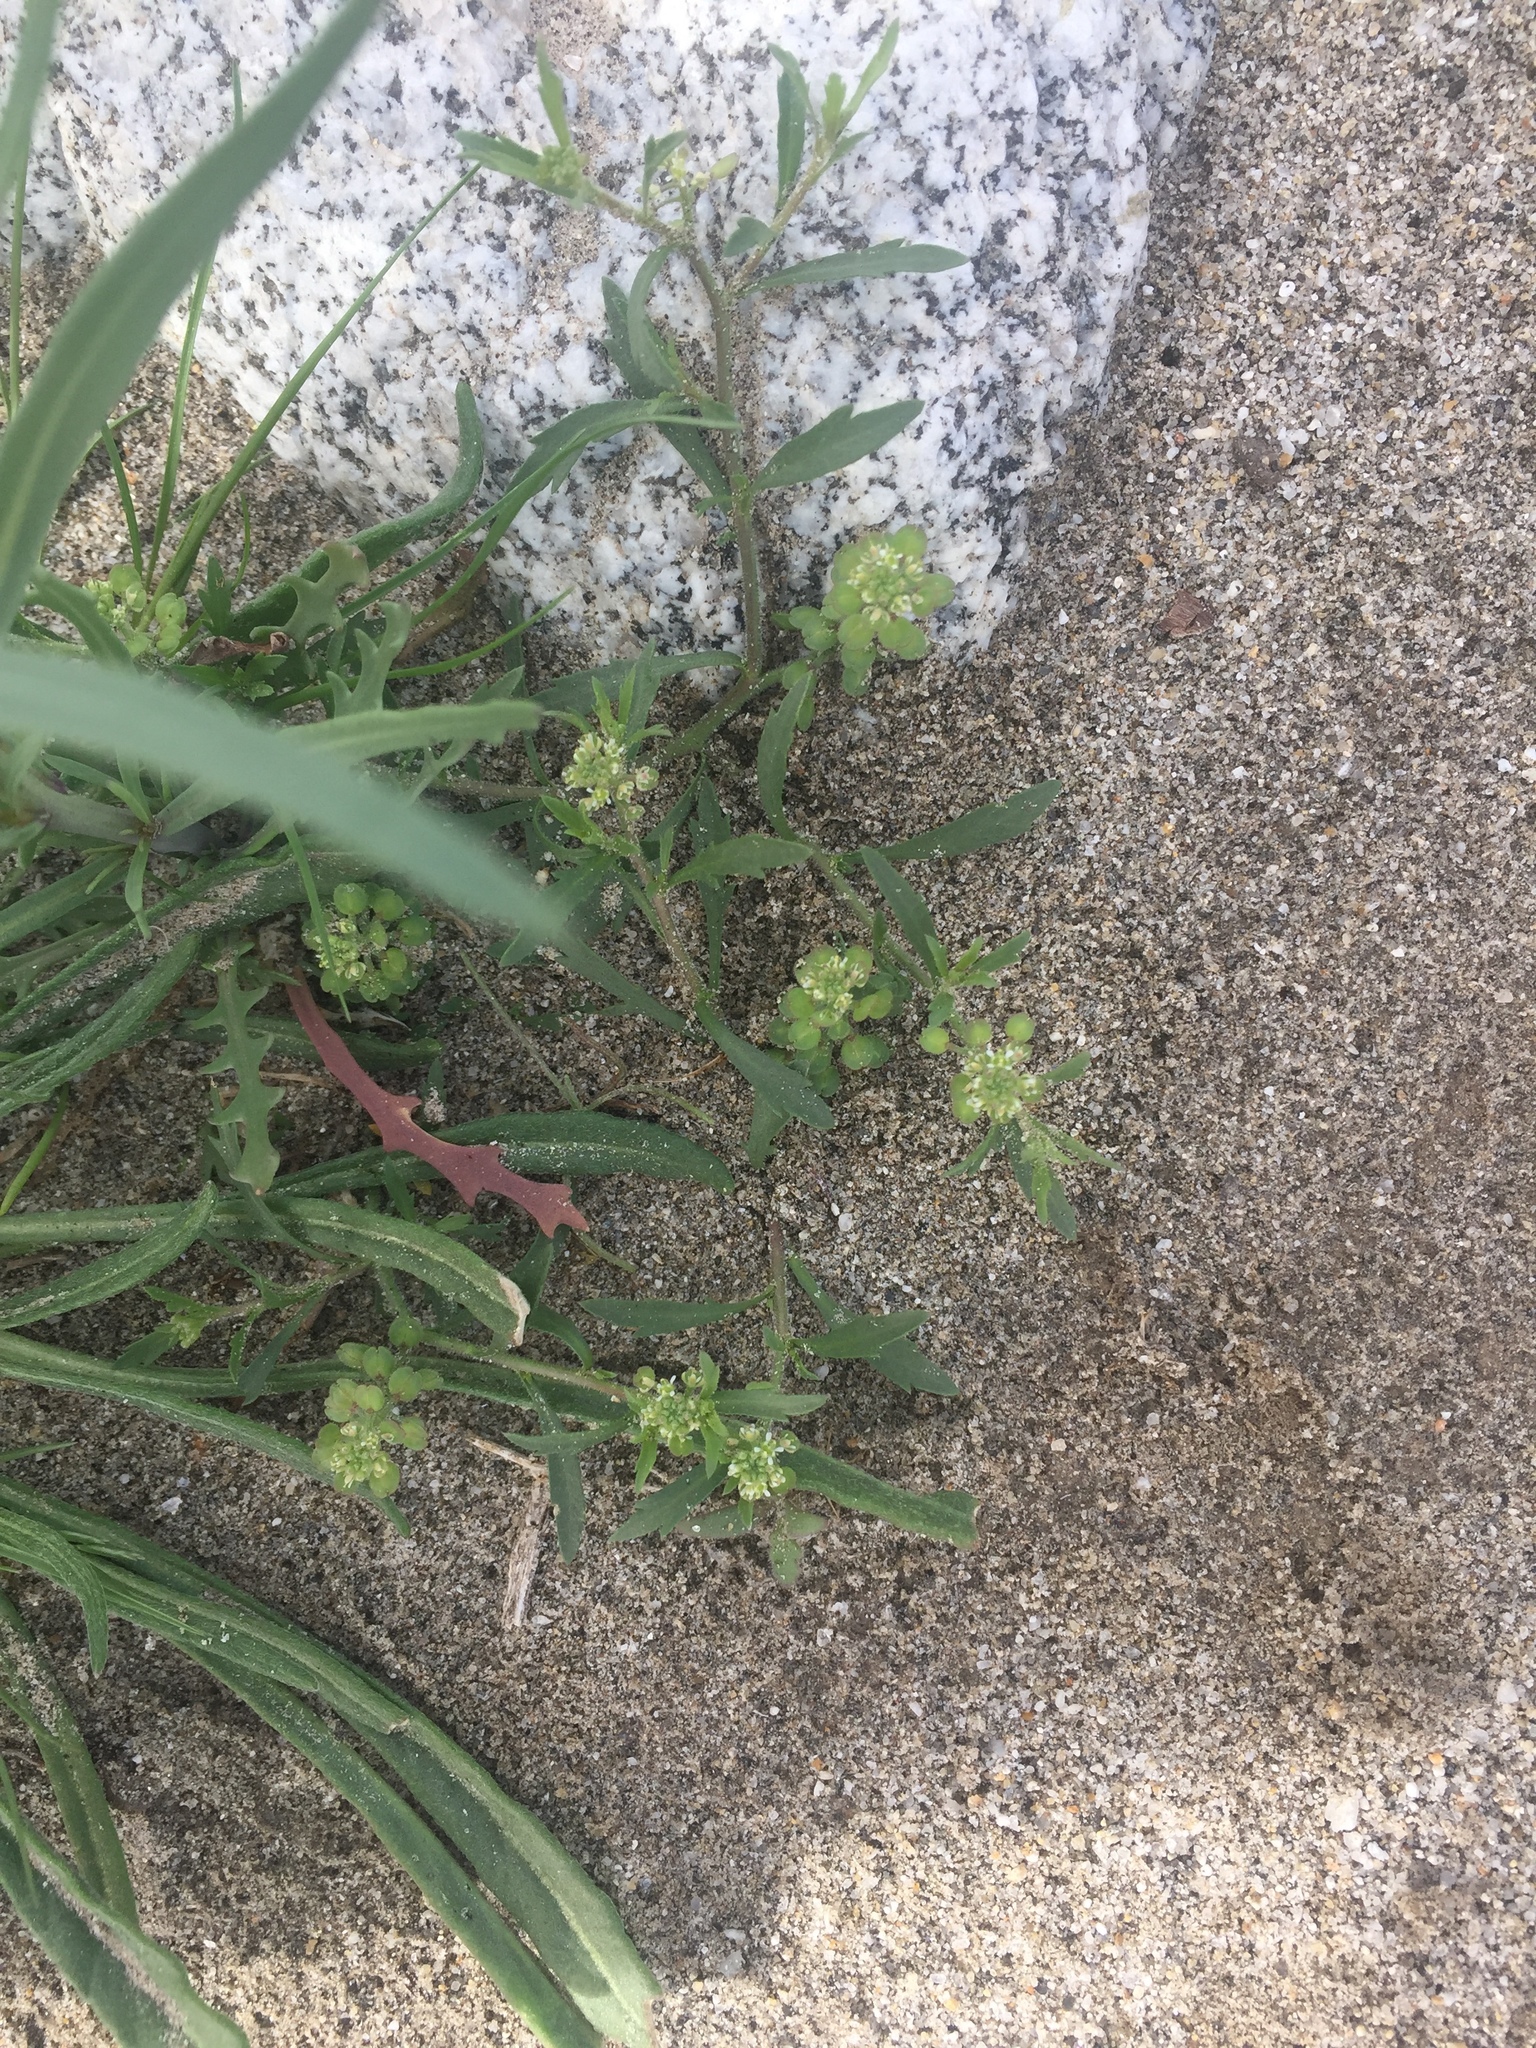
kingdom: Plantae
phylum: Tracheophyta
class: Magnoliopsida
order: Brassicales
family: Brassicaceae
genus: Lepidium
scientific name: Lepidium lasiocarpum
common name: Hairy-pod pepperwort
